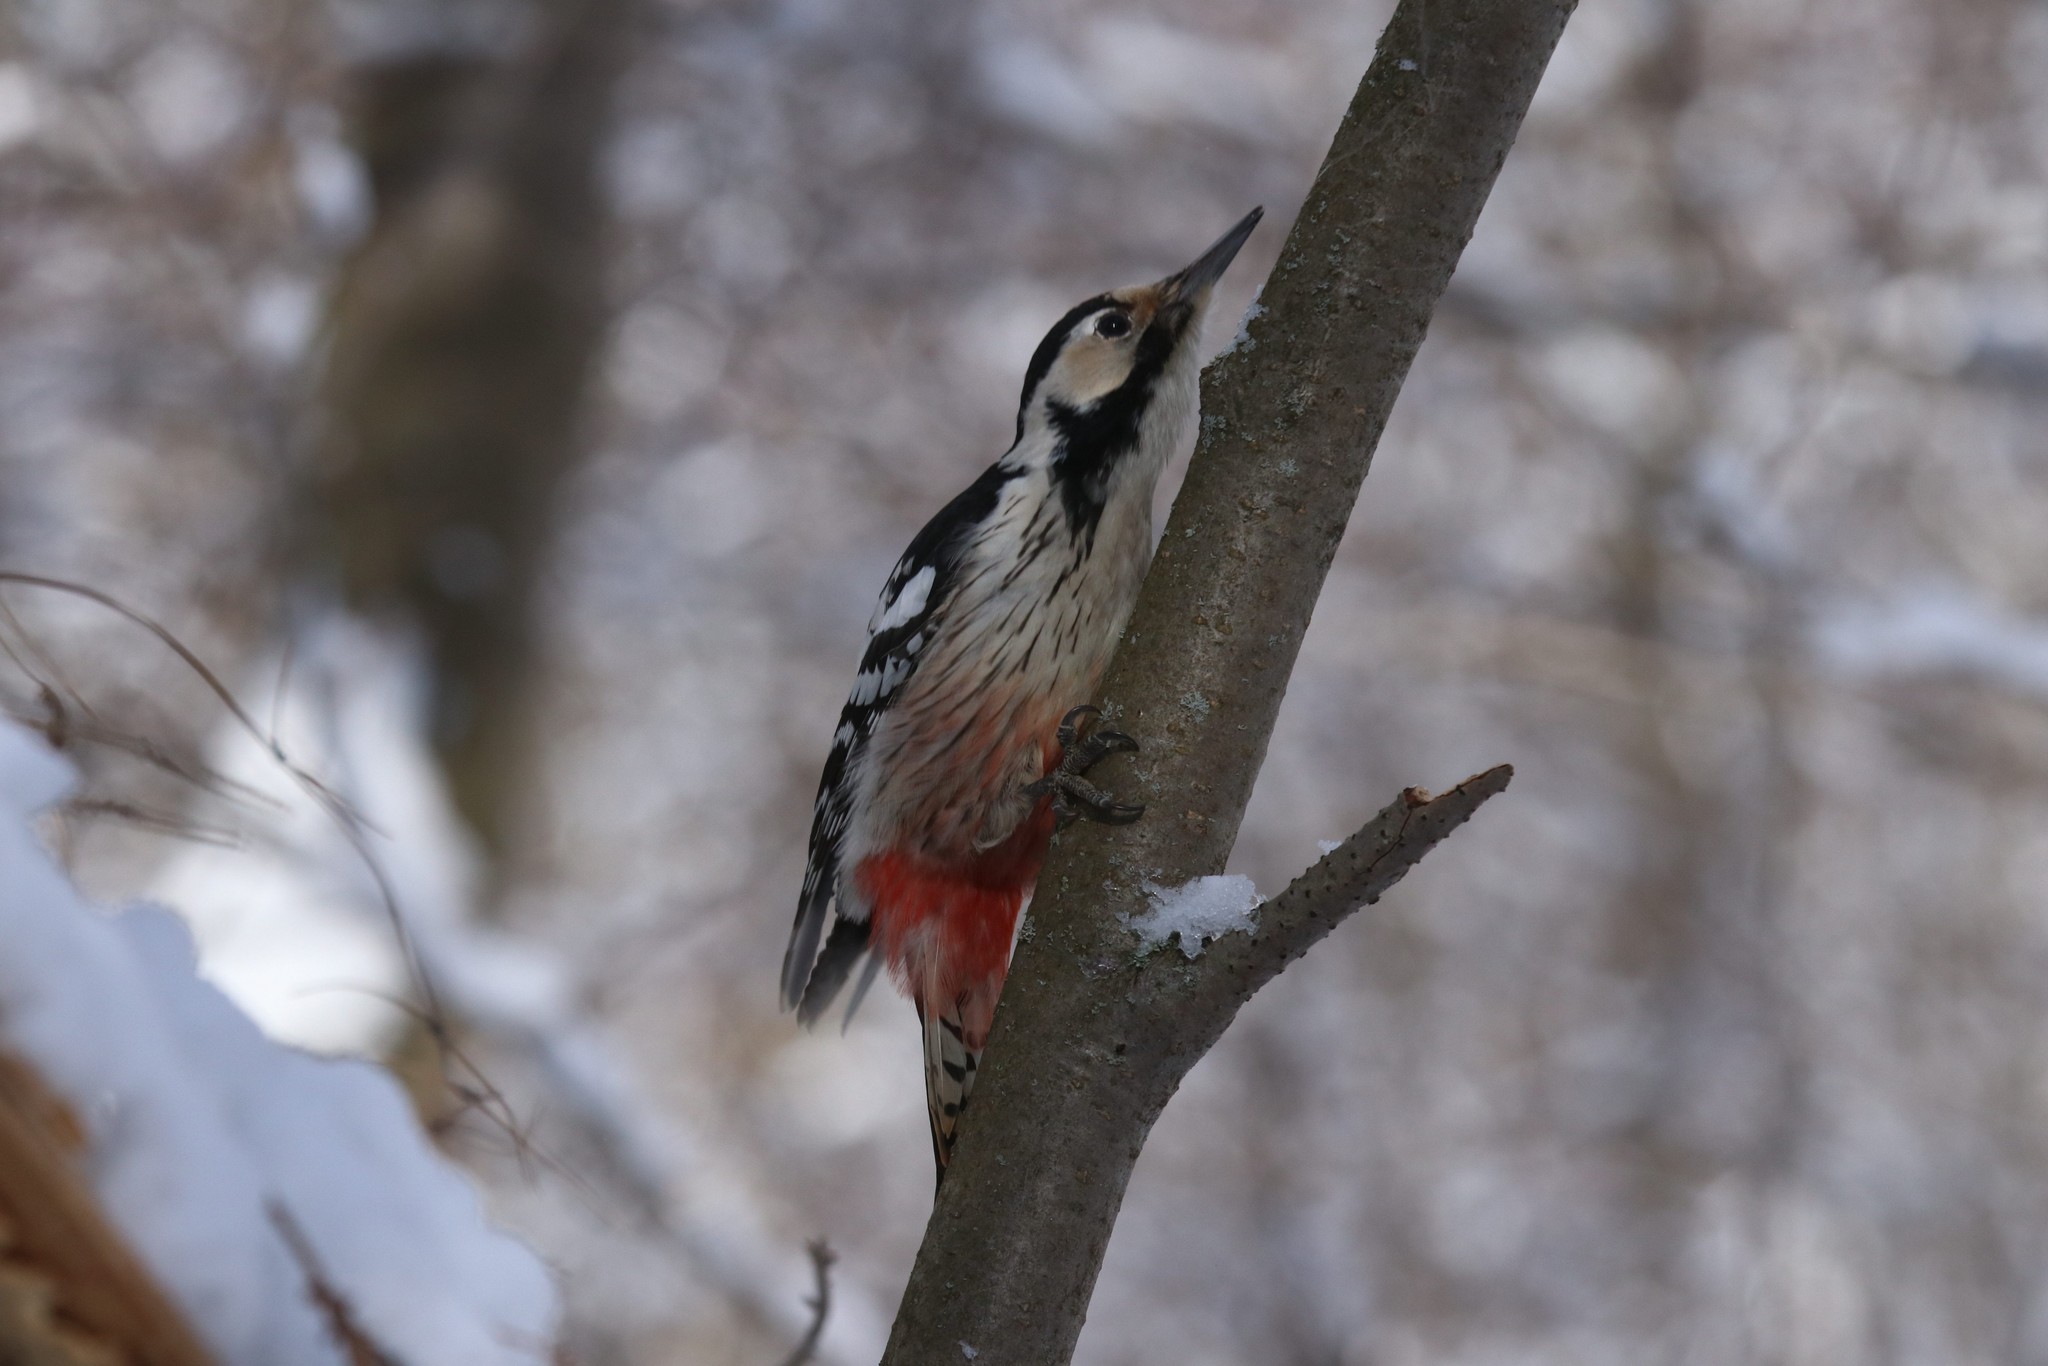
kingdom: Animalia
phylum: Chordata
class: Aves
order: Piciformes
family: Picidae
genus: Dendrocopos
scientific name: Dendrocopos leucotos
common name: White-backed woodpecker
